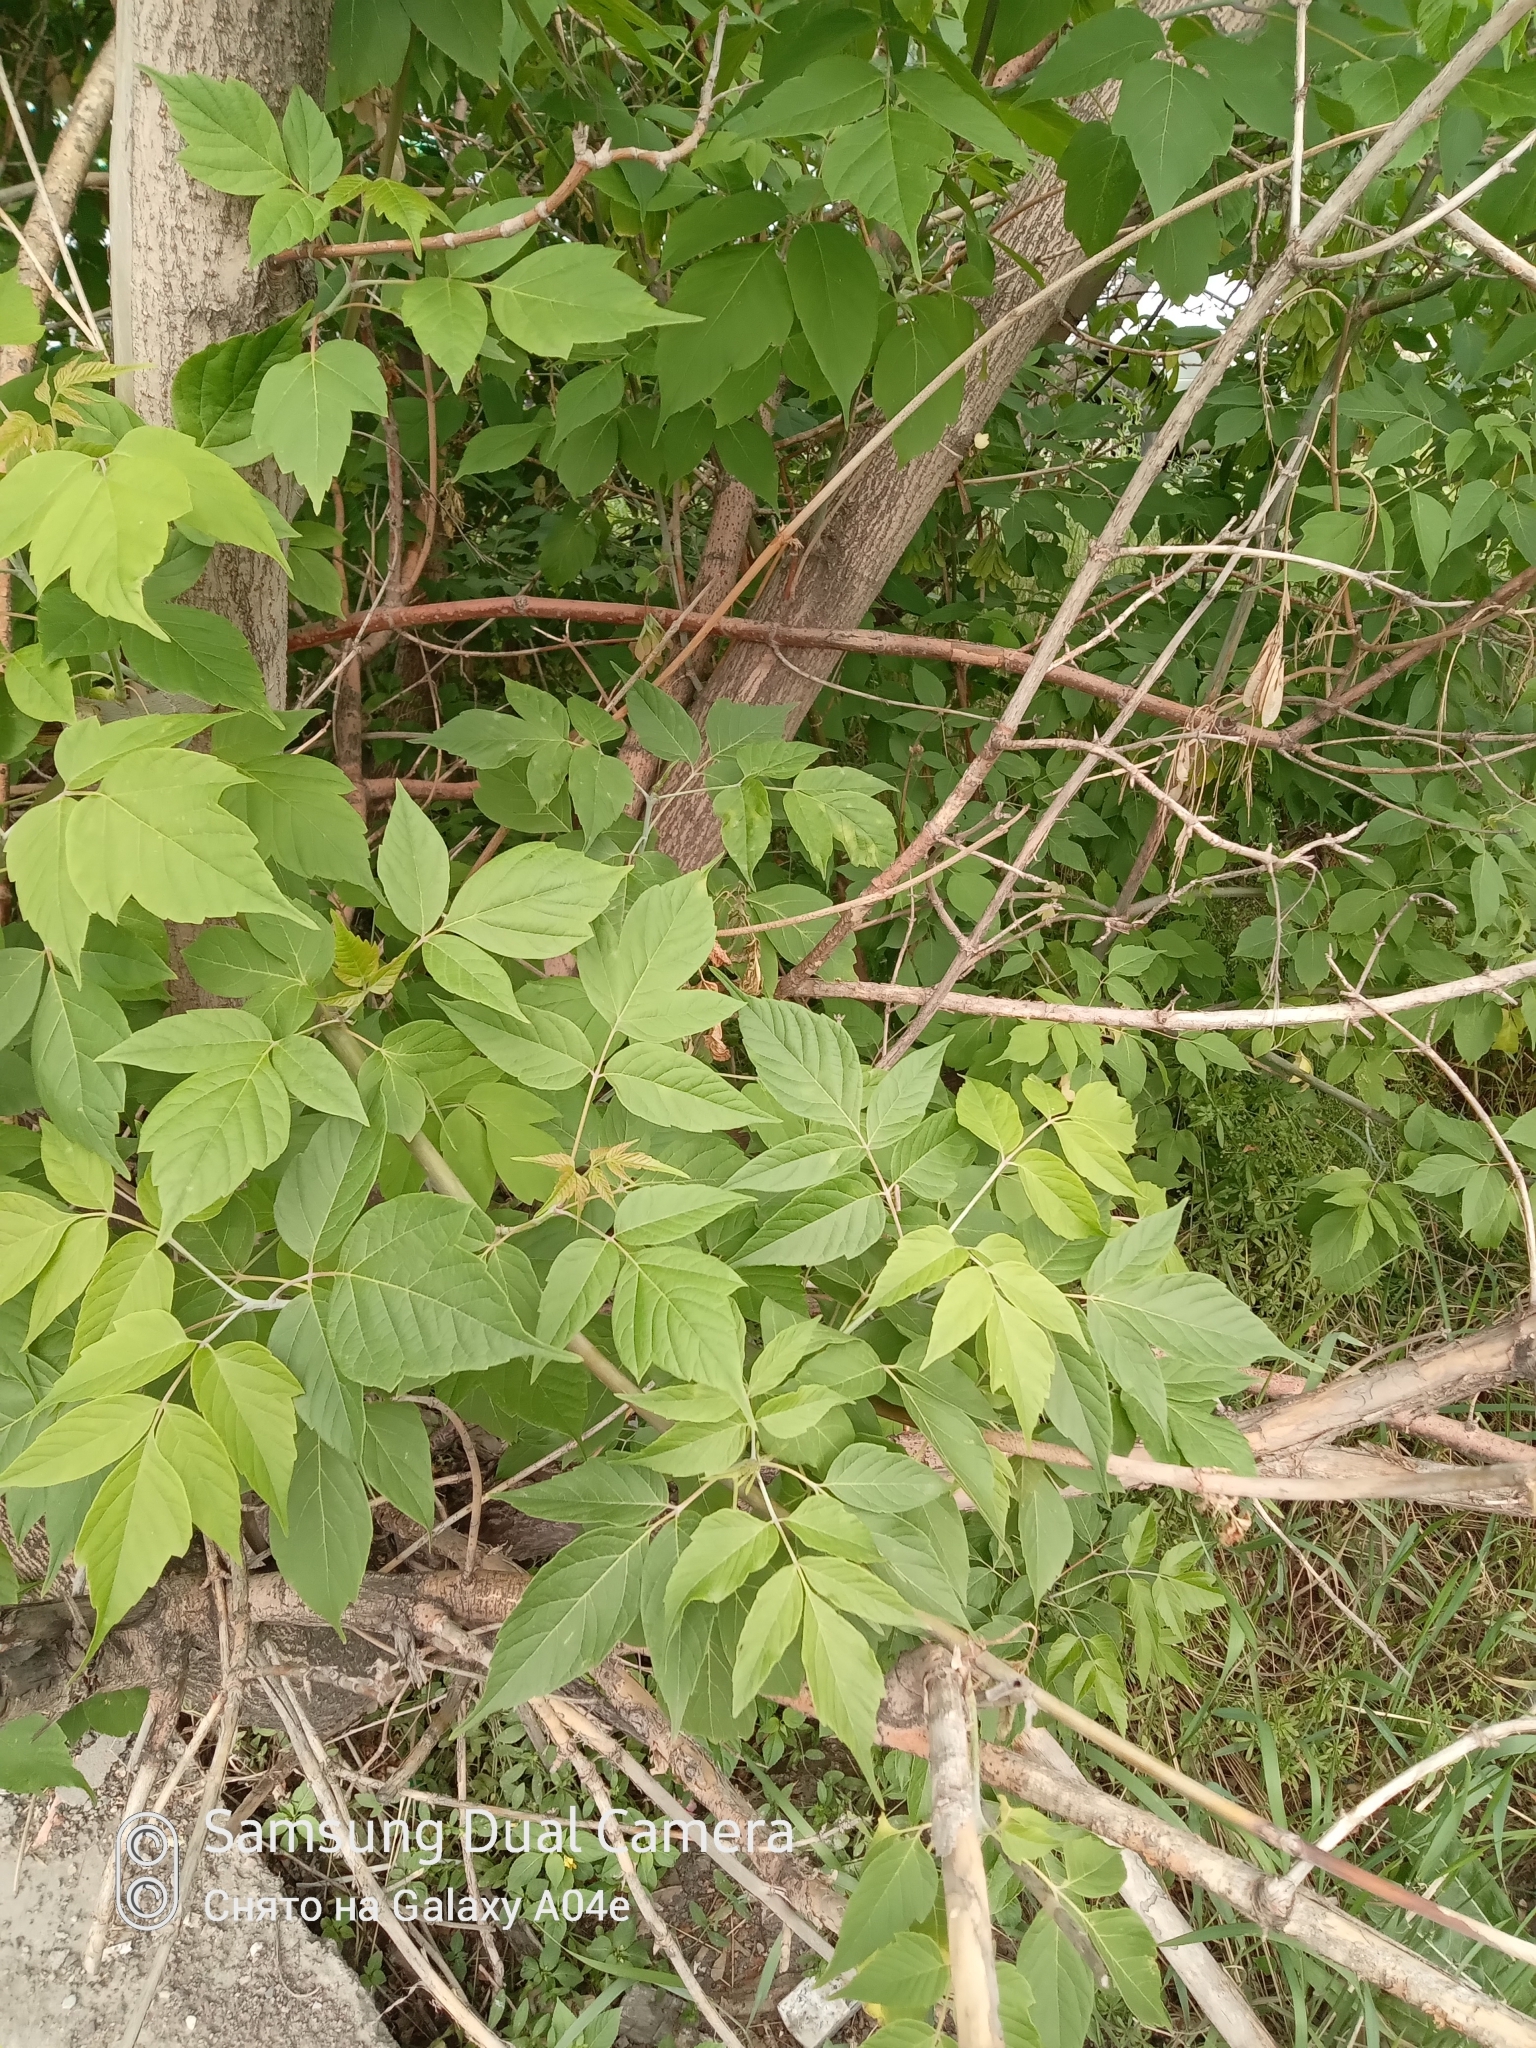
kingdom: Plantae
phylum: Tracheophyta
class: Magnoliopsida
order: Sapindales
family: Sapindaceae
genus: Acer
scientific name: Acer negundo
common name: Ashleaf maple
